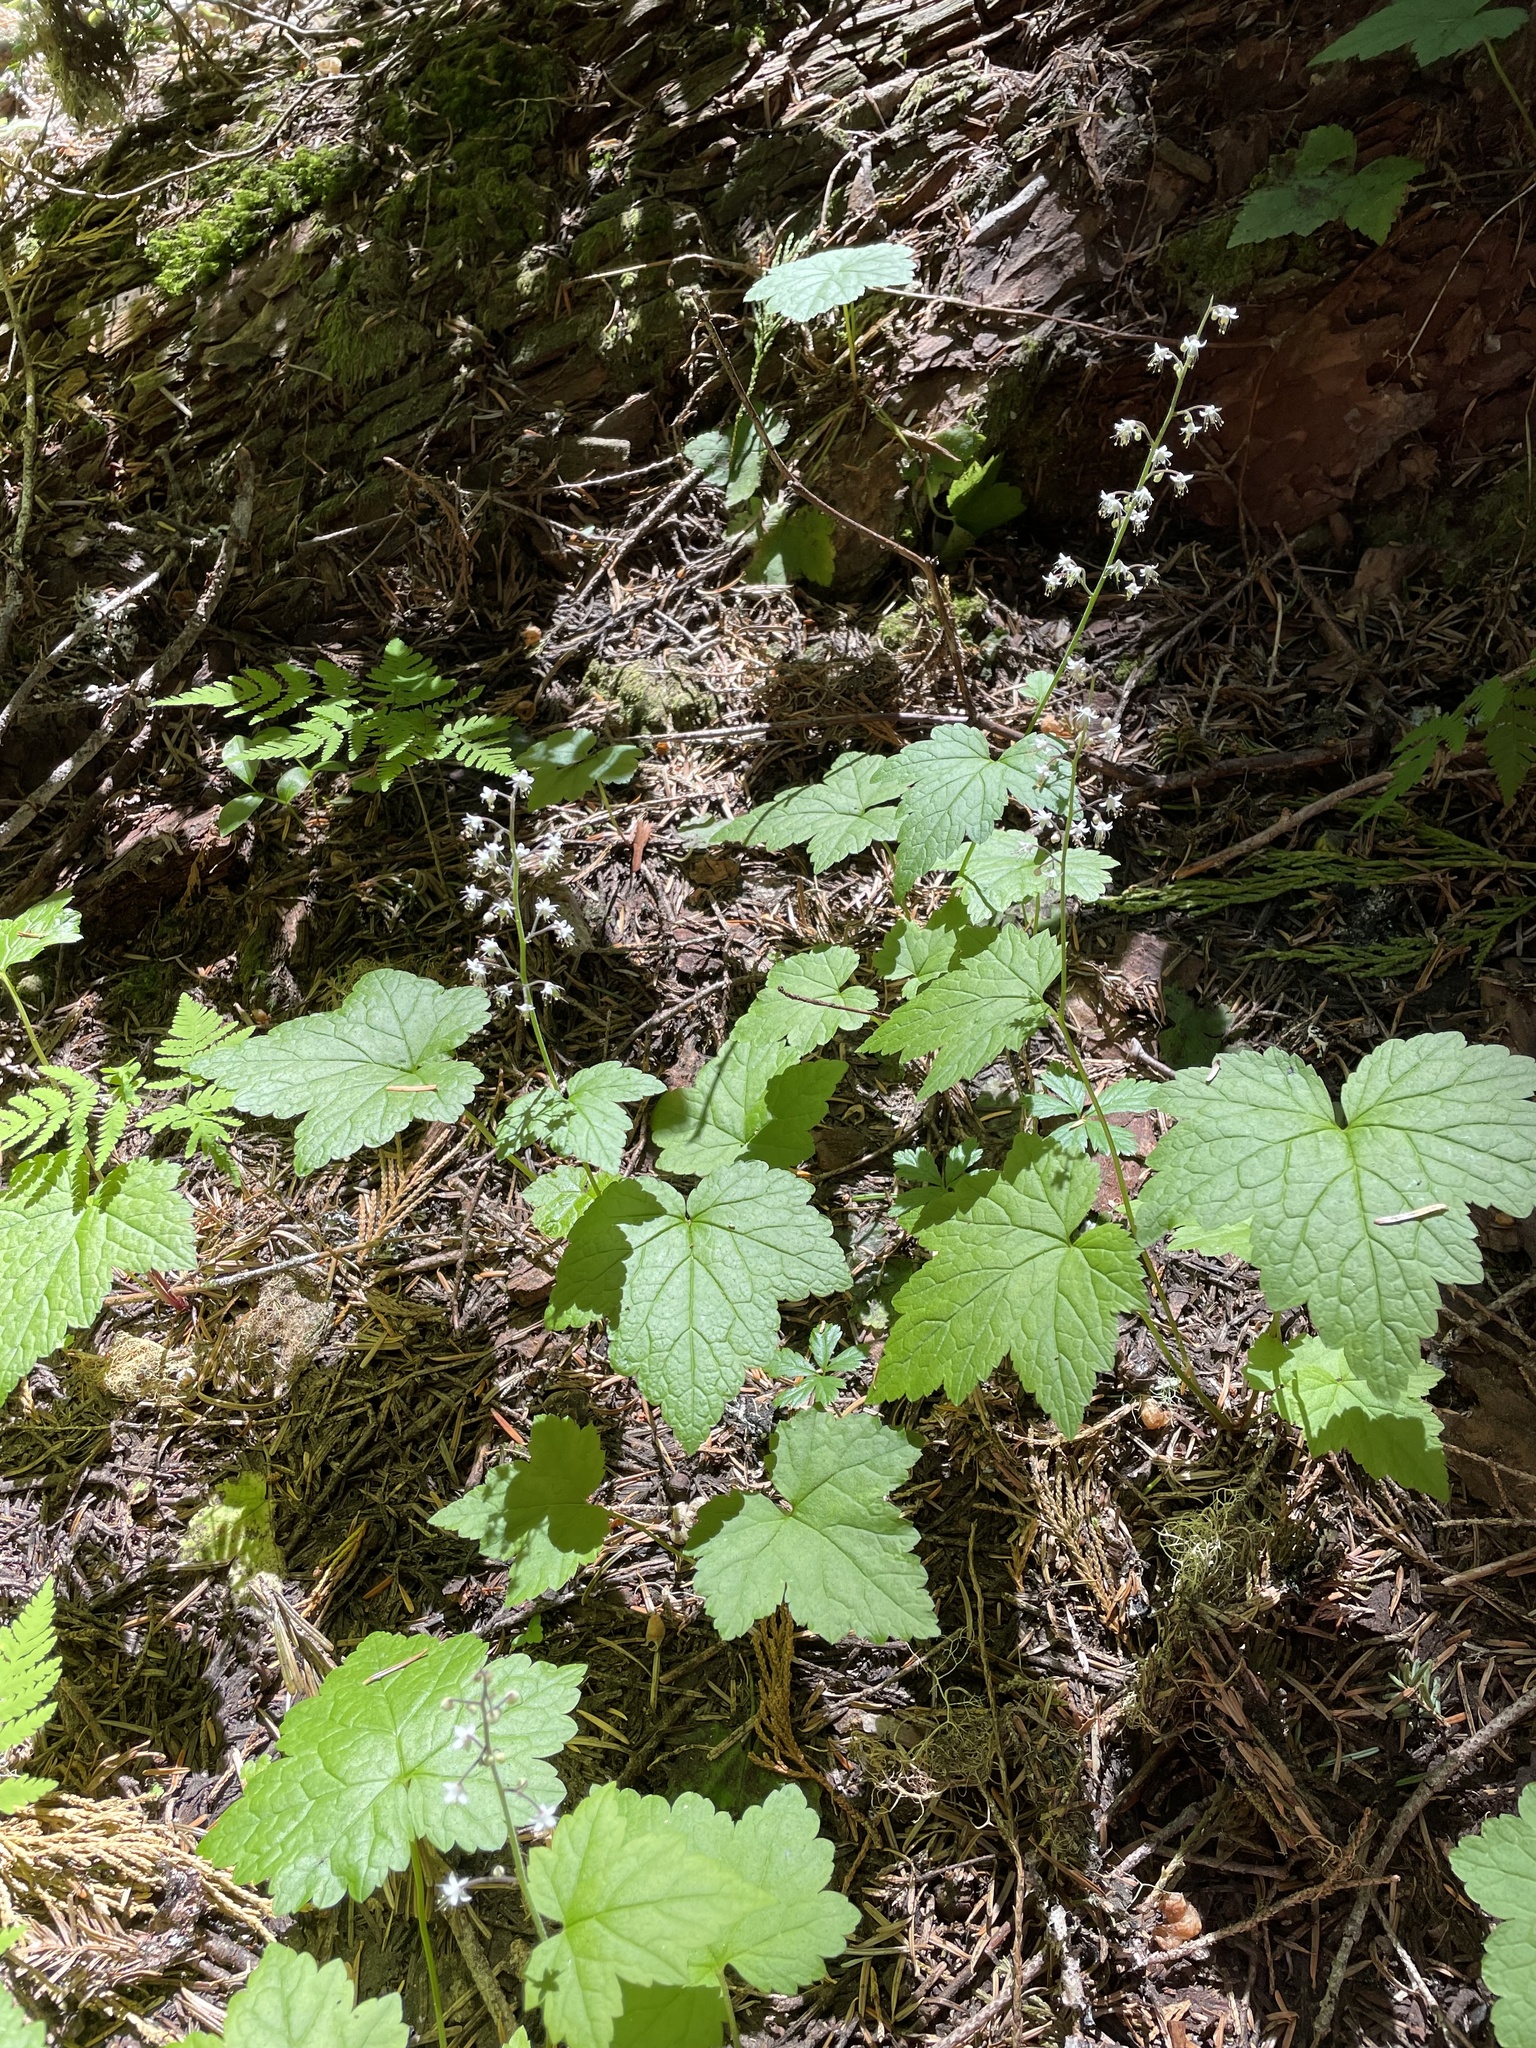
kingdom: Plantae
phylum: Tracheophyta
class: Magnoliopsida
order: Saxifragales
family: Saxifragaceae
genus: Tiarella
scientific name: Tiarella trifoliata
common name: Sugar-scoop
